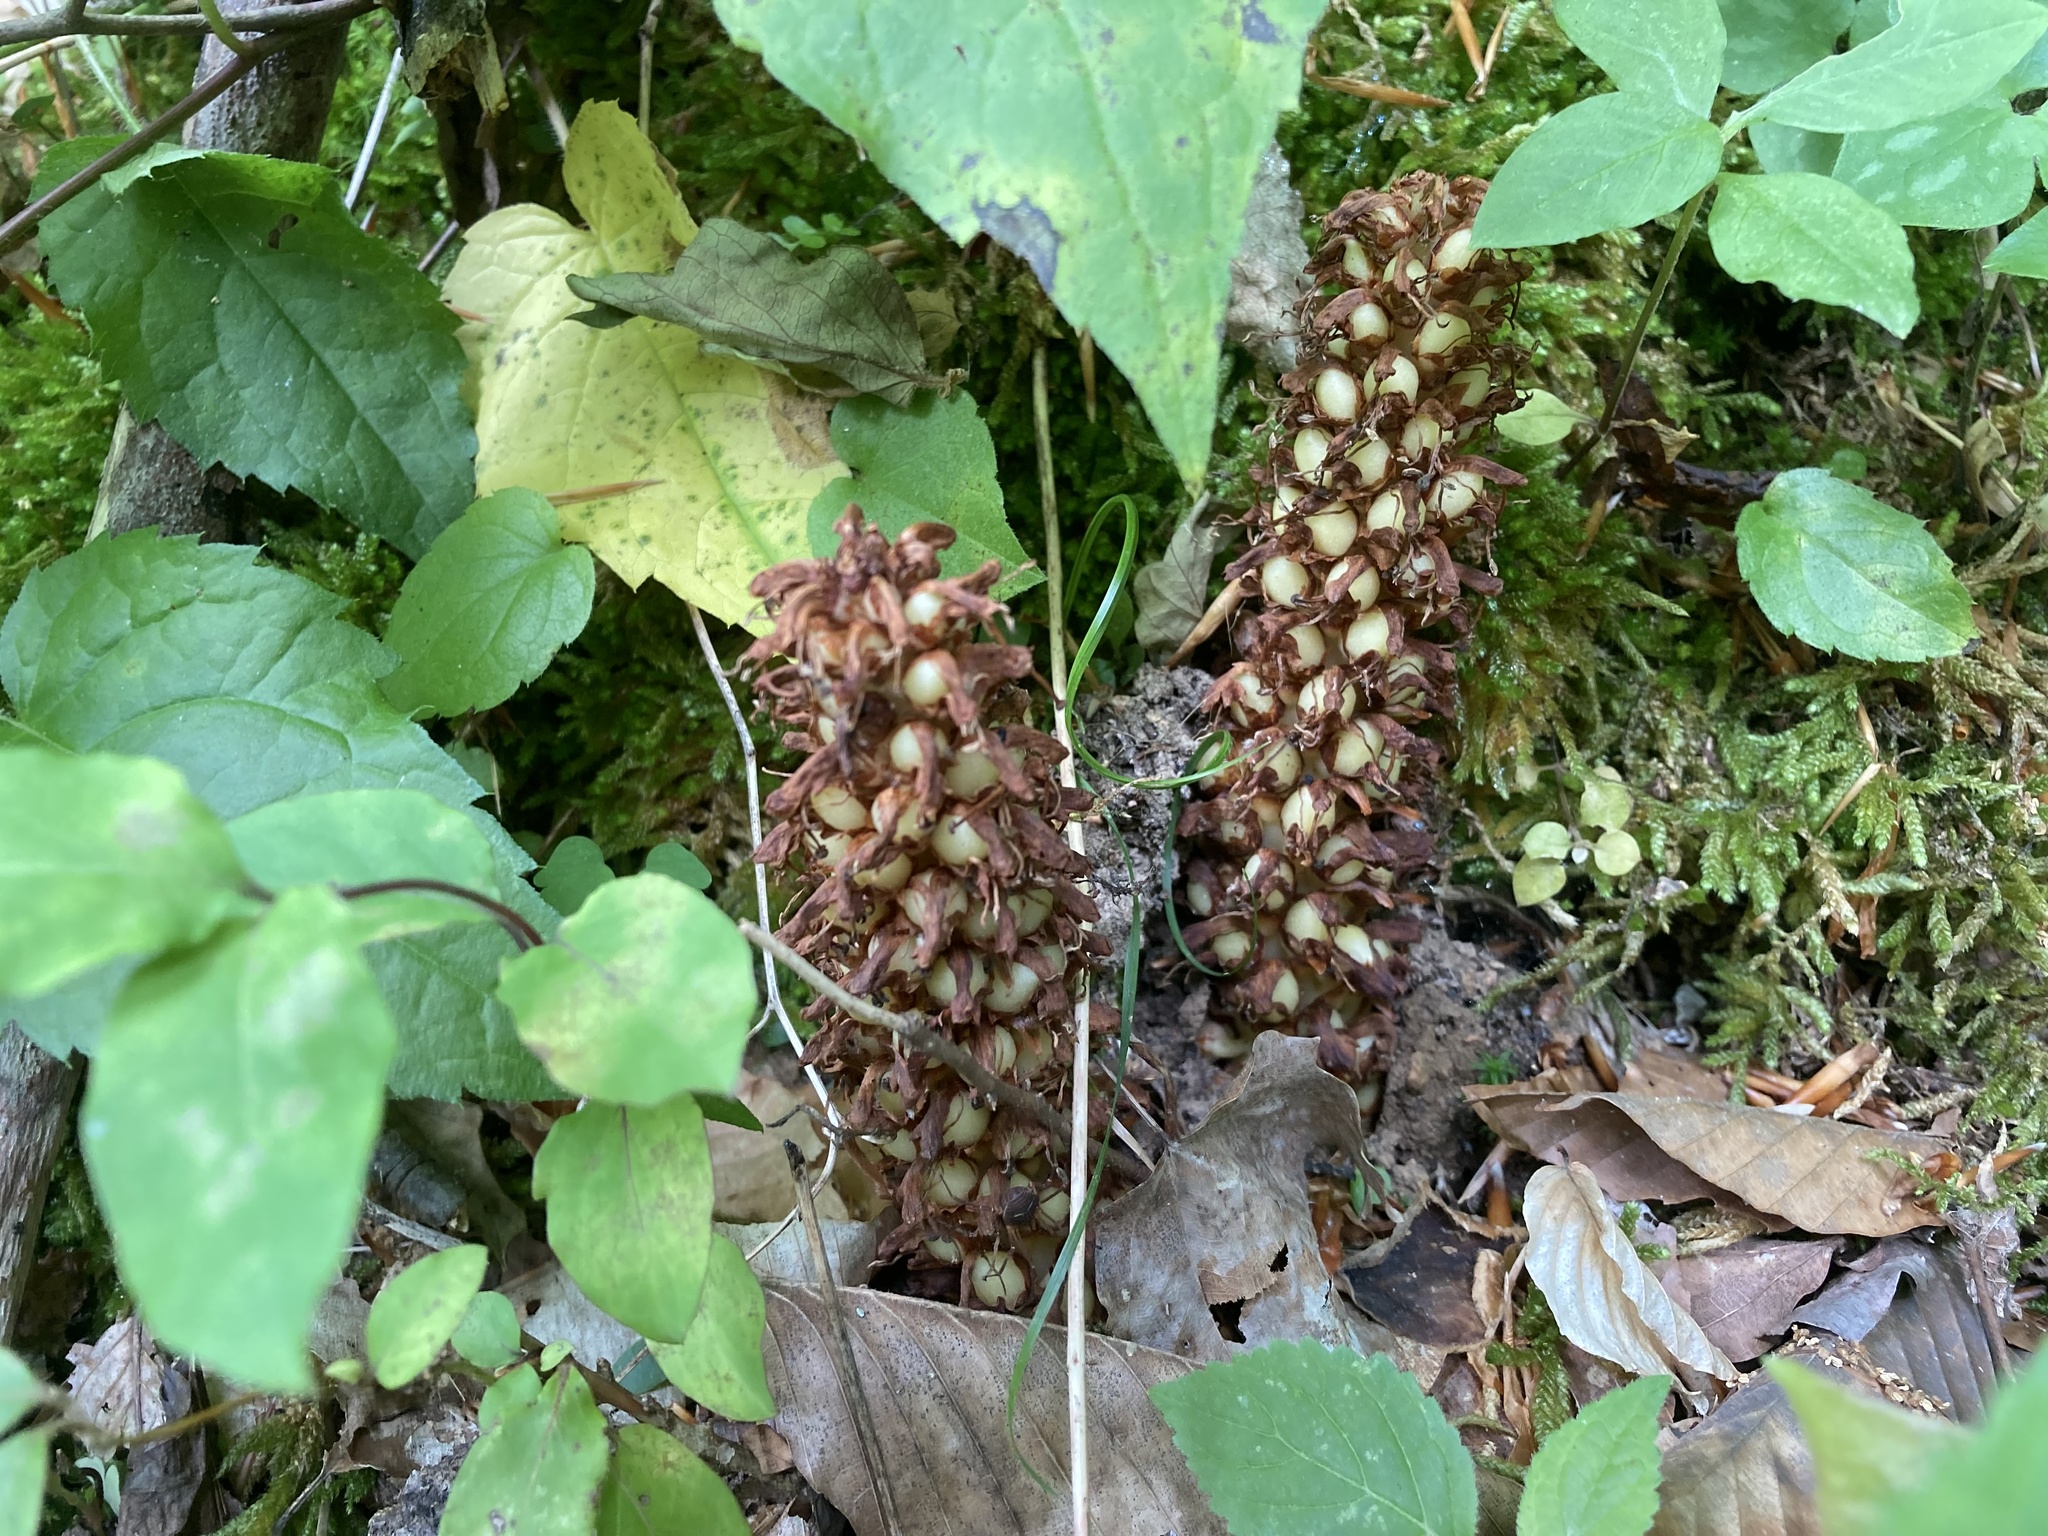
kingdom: Plantae
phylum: Tracheophyta
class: Magnoliopsida
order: Lamiales
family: Orobanchaceae
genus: Conopholis
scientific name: Conopholis americana
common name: American cancer-root
